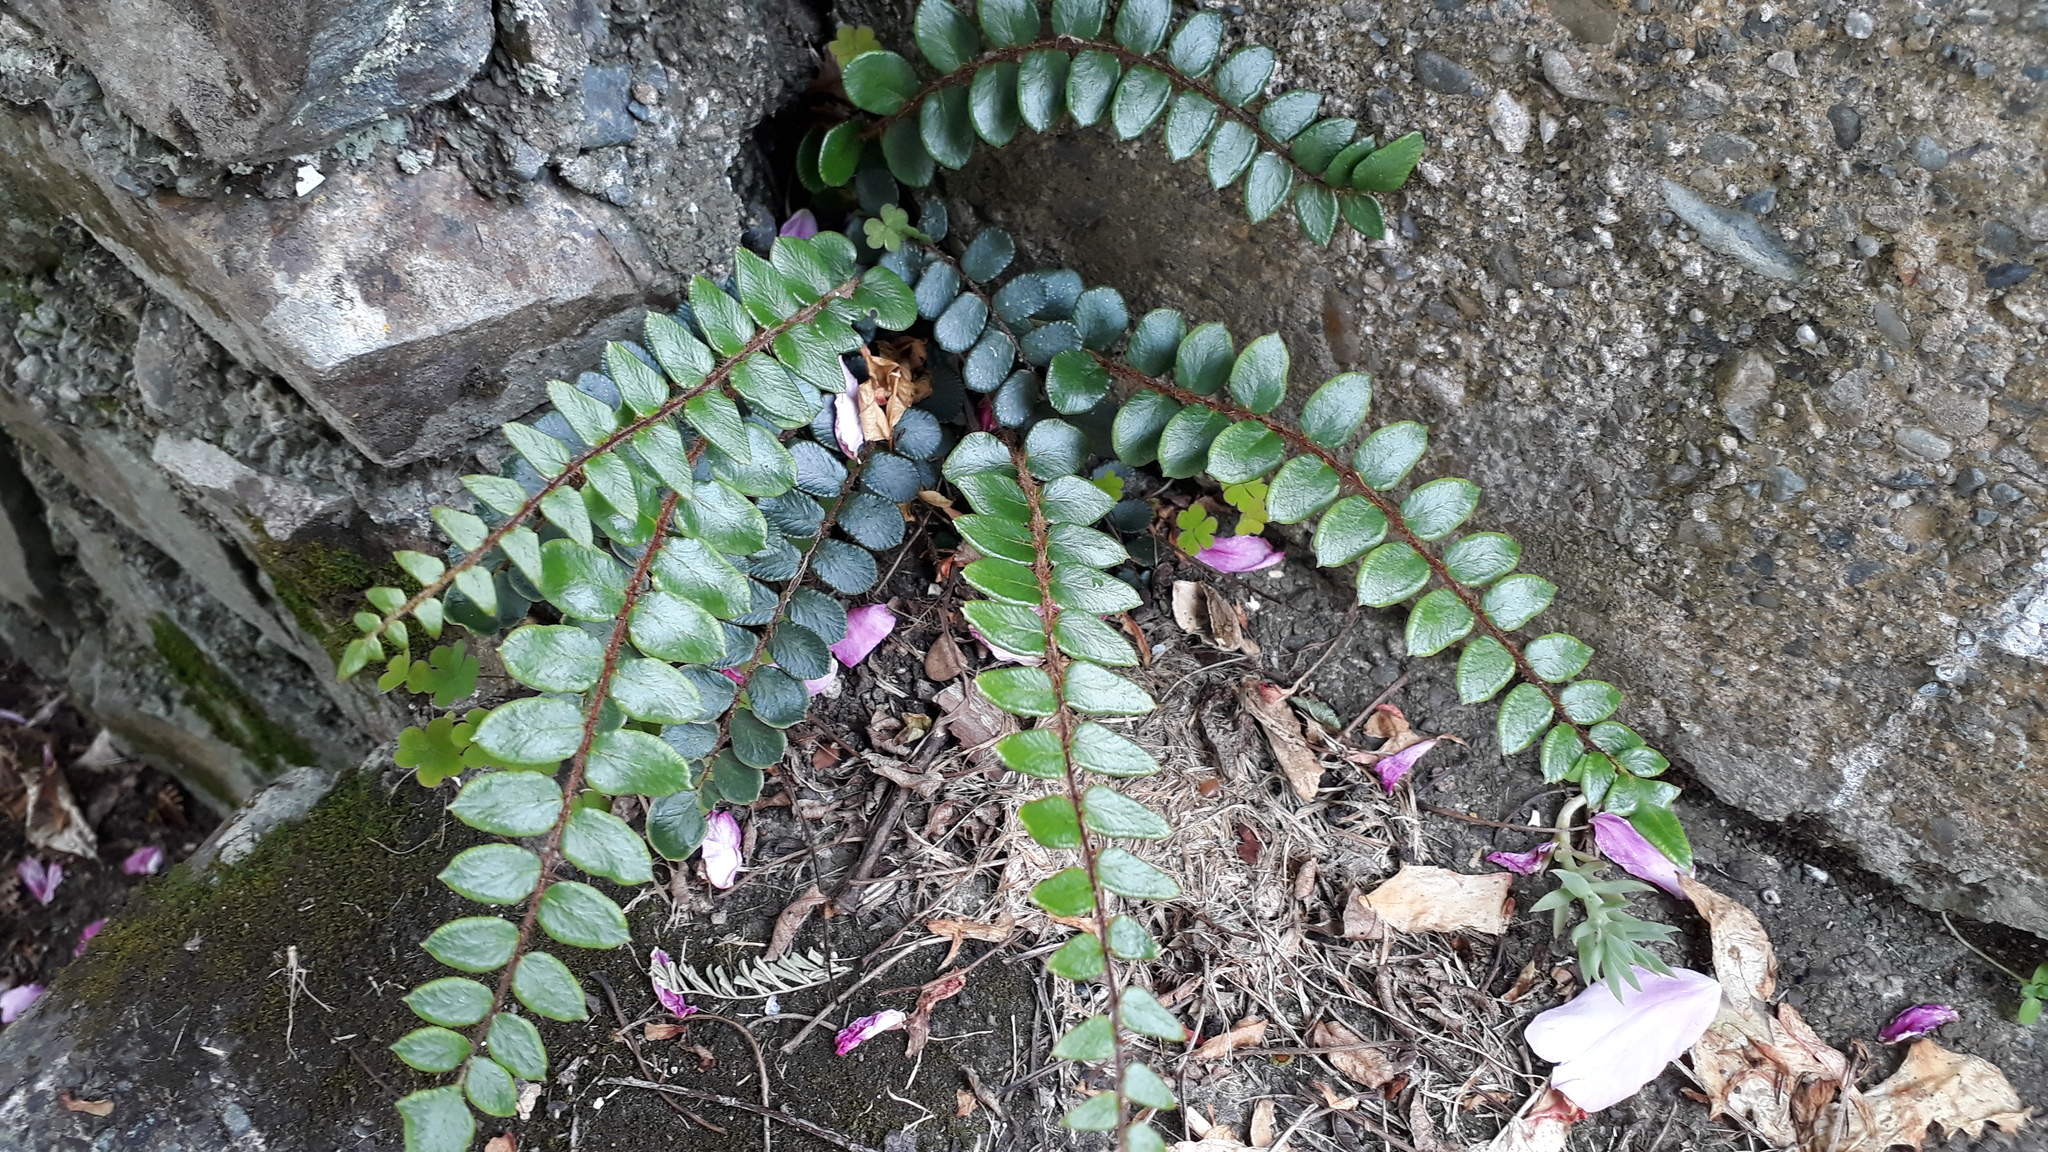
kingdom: Plantae
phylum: Tracheophyta
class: Polypodiopsida
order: Polypodiales
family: Pteridaceae
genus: Pellaea
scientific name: Pellaea rotundifolia
